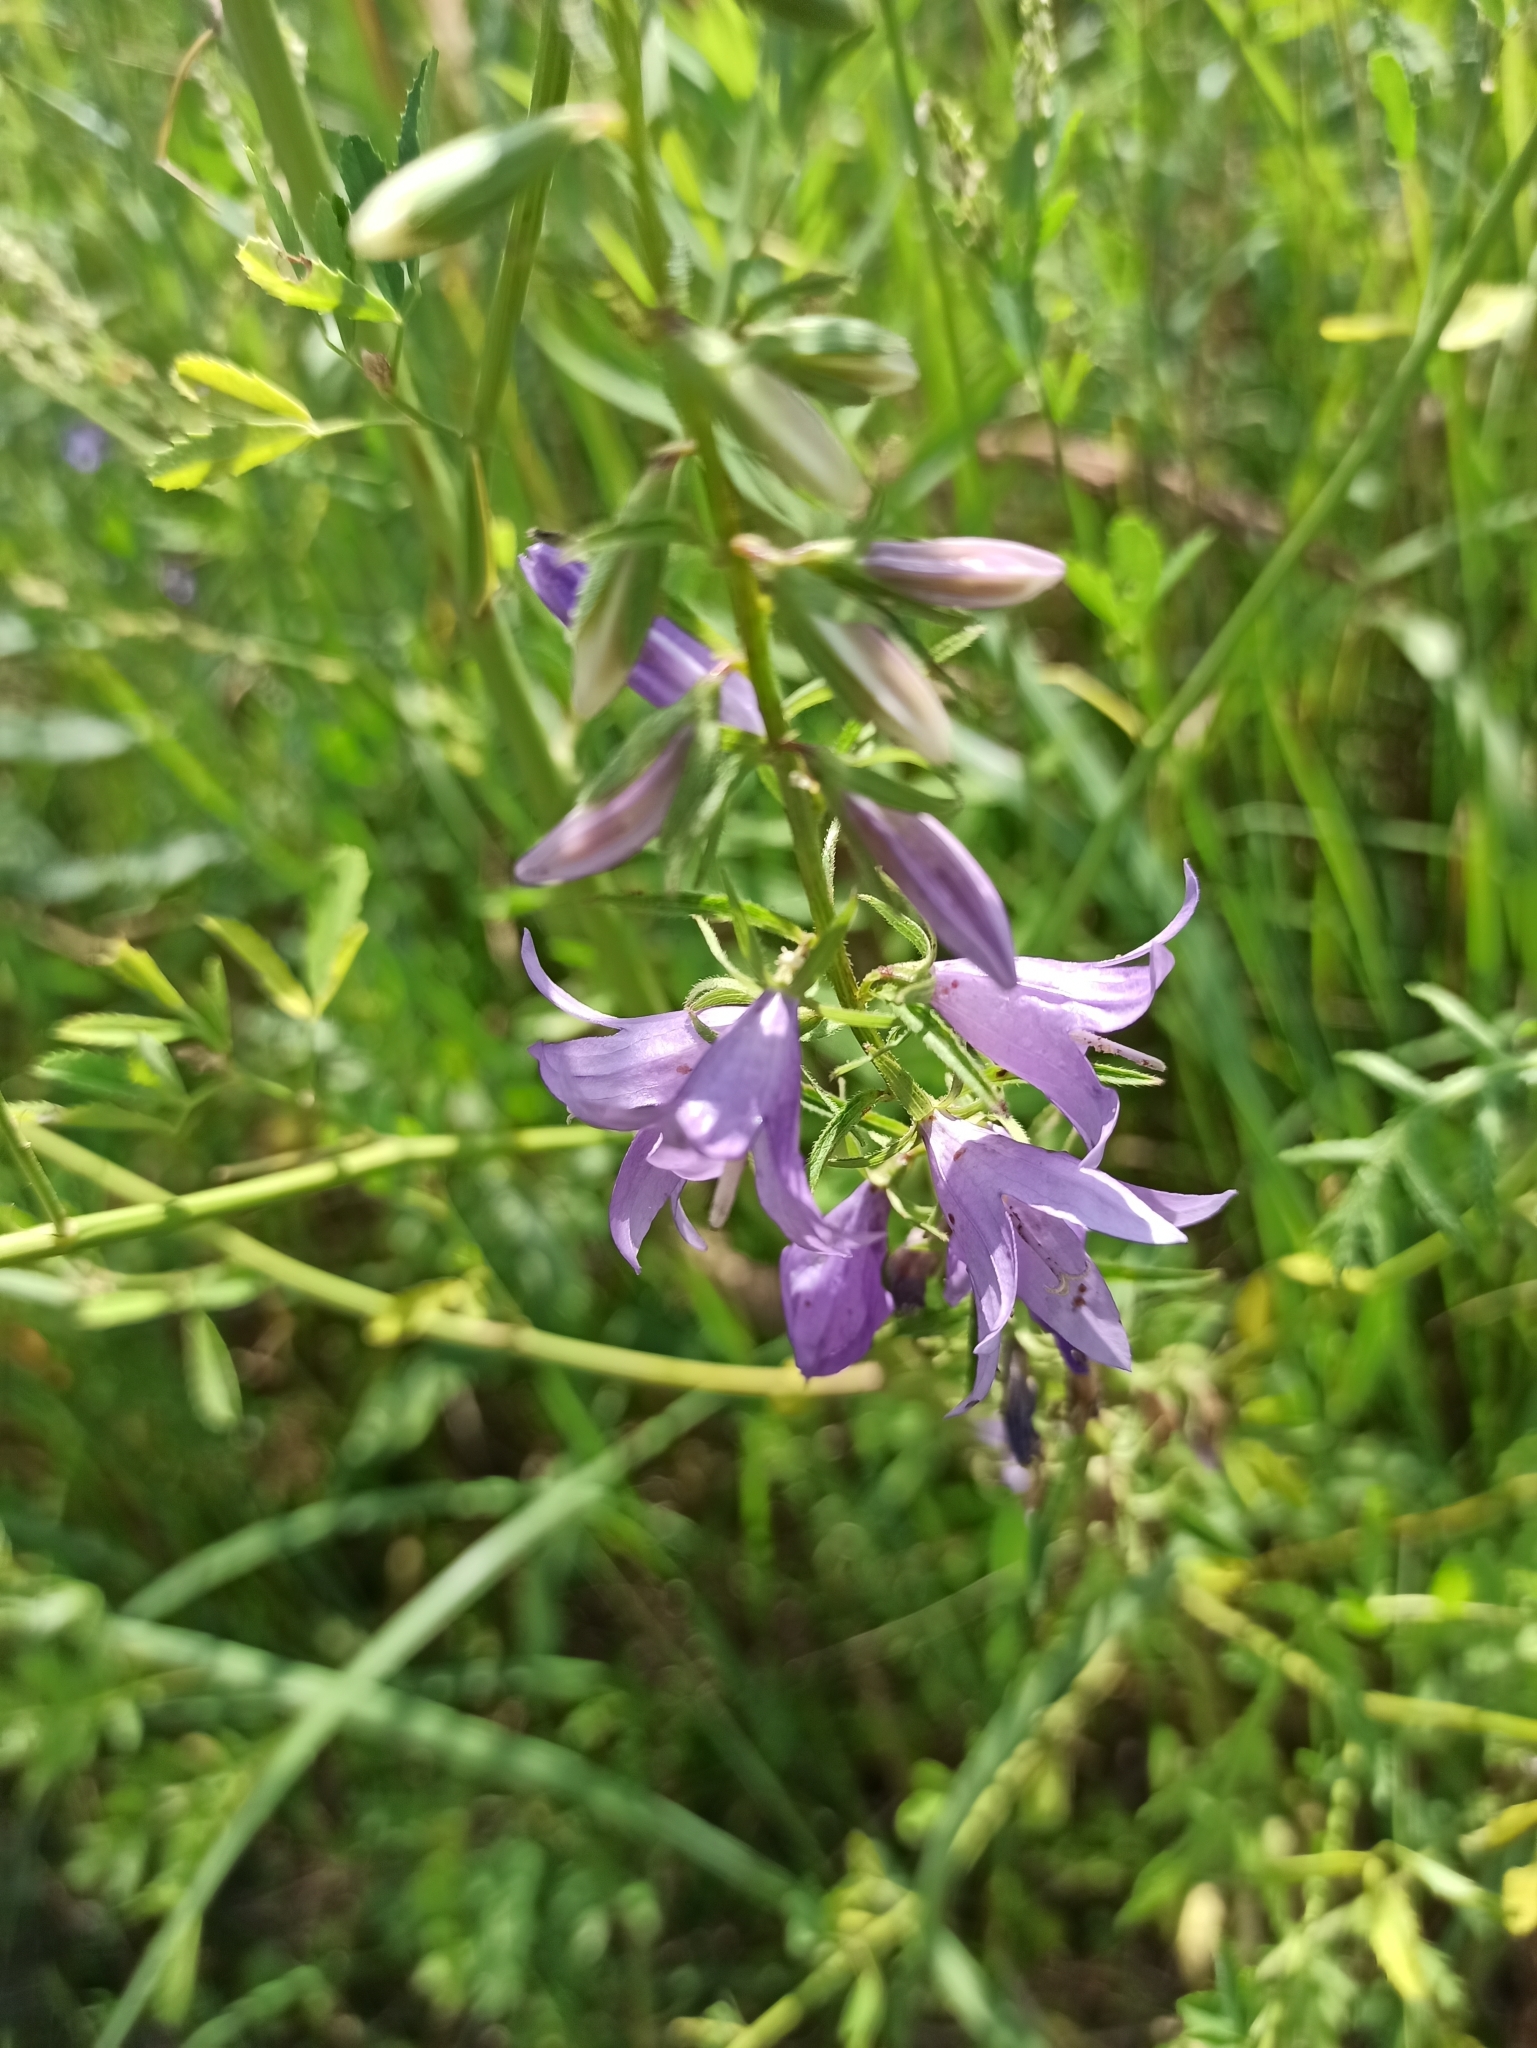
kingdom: Plantae
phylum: Tracheophyta
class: Magnoliopsida
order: Asterales
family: Campanulaceae
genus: Campanula
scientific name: Campanula rapunculoides
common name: Creeping bellflower
